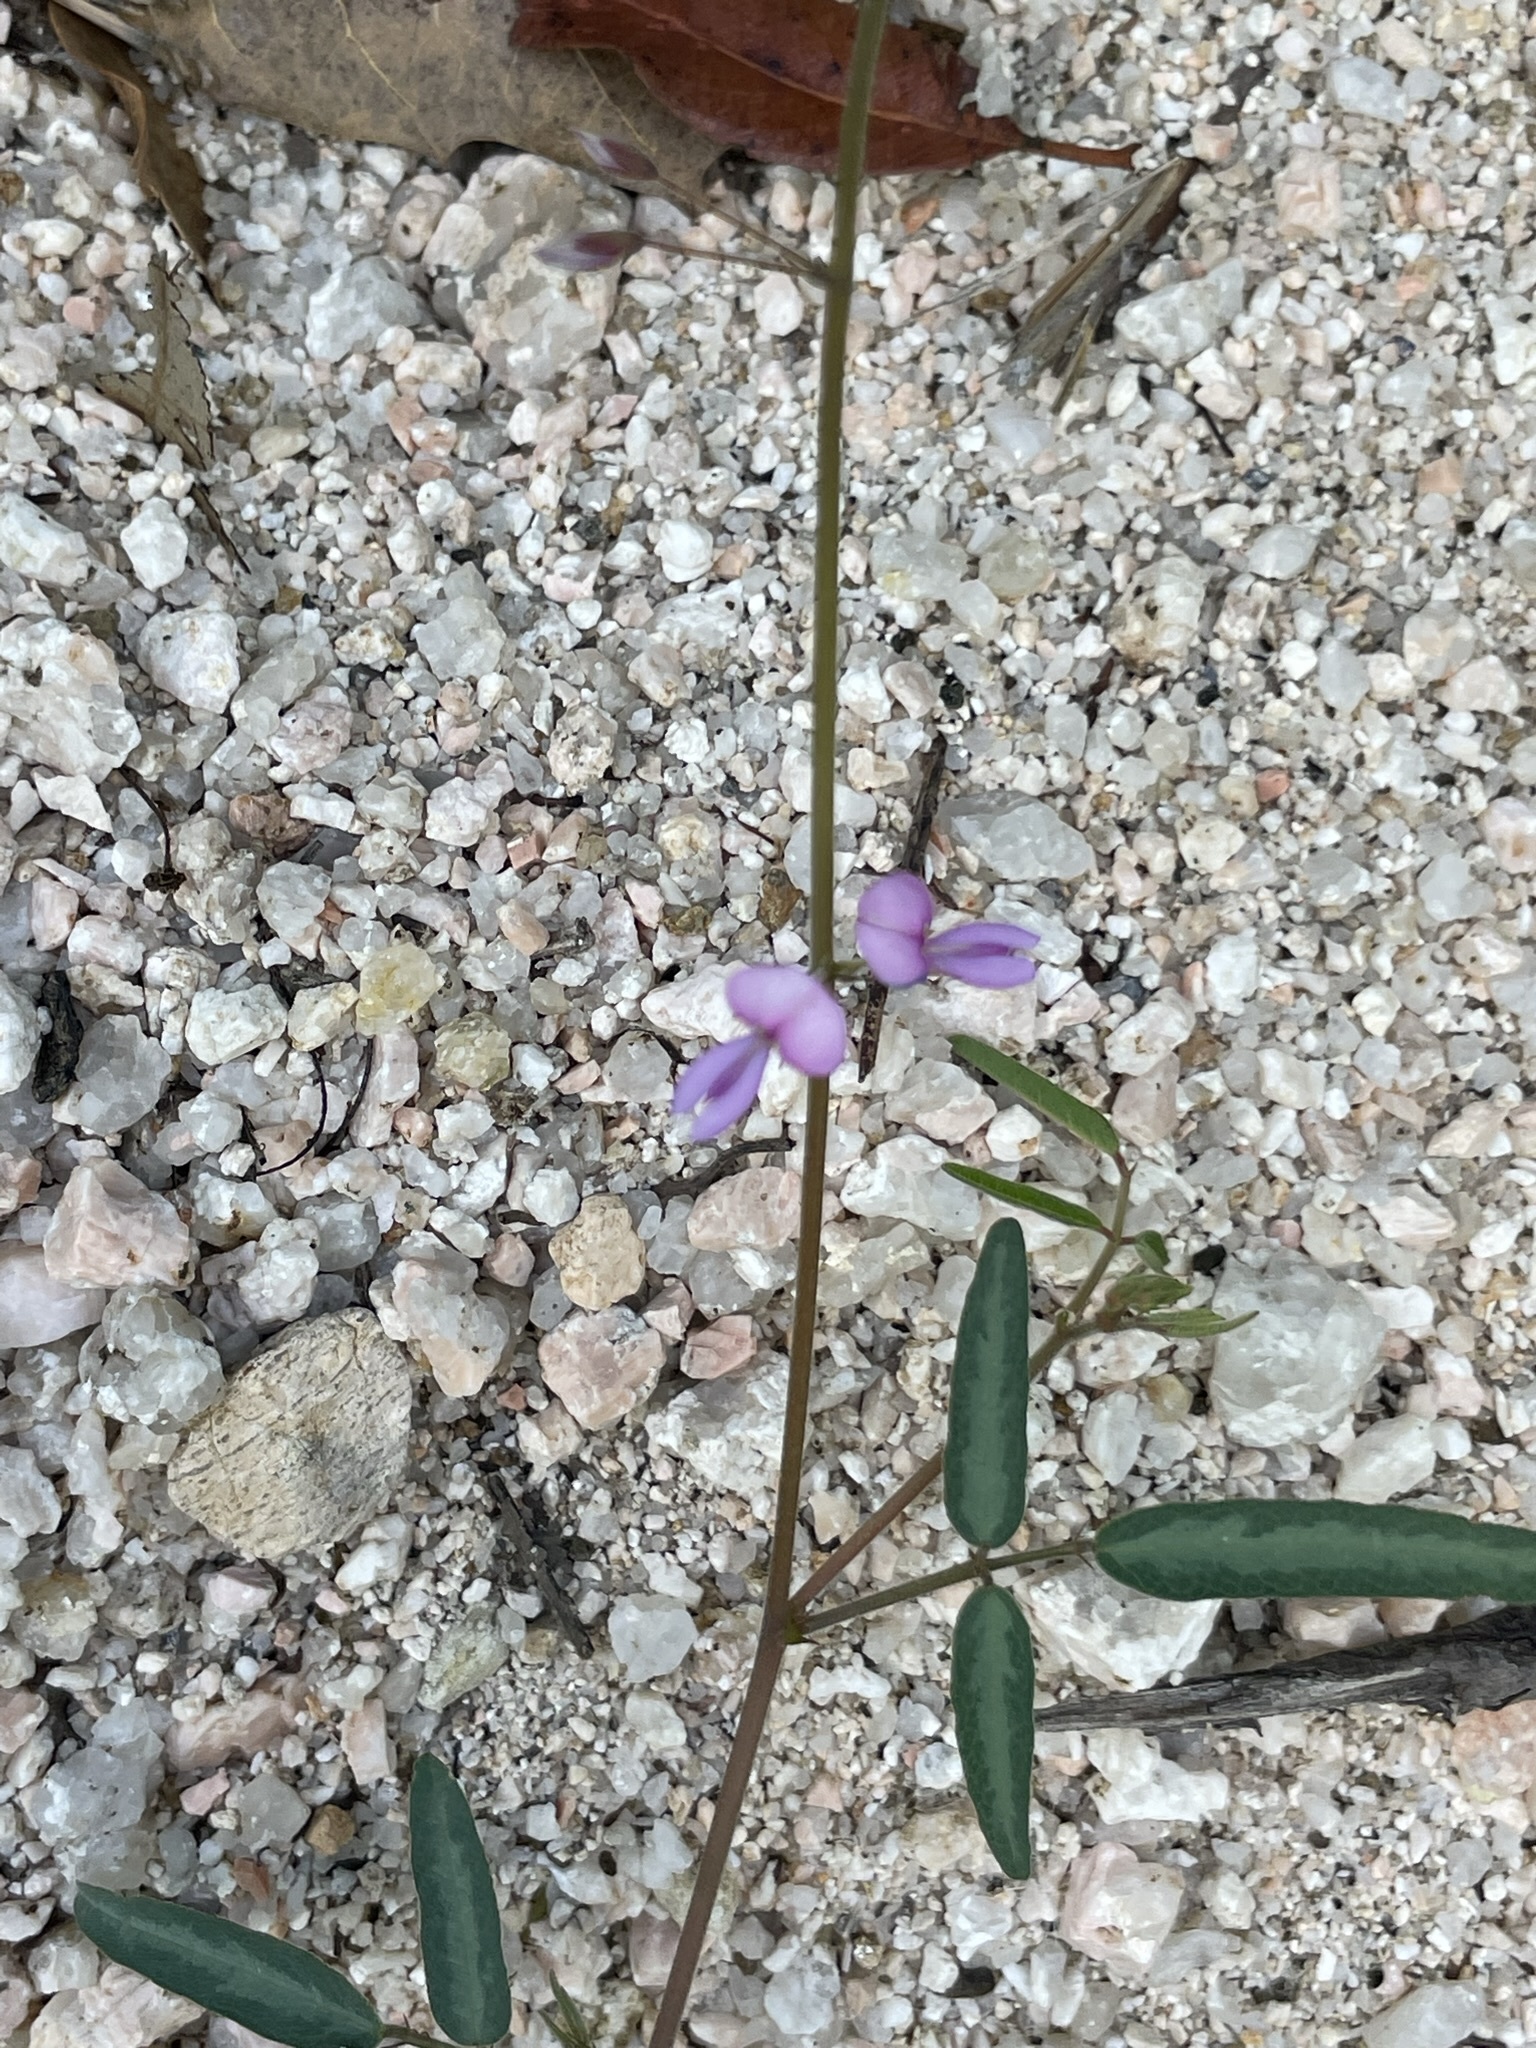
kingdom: Plantae
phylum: Tracheophyta
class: Magnoliopsida
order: Fabales
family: Fabaceae
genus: Tephrosia
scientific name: Tephrosia palmeri
